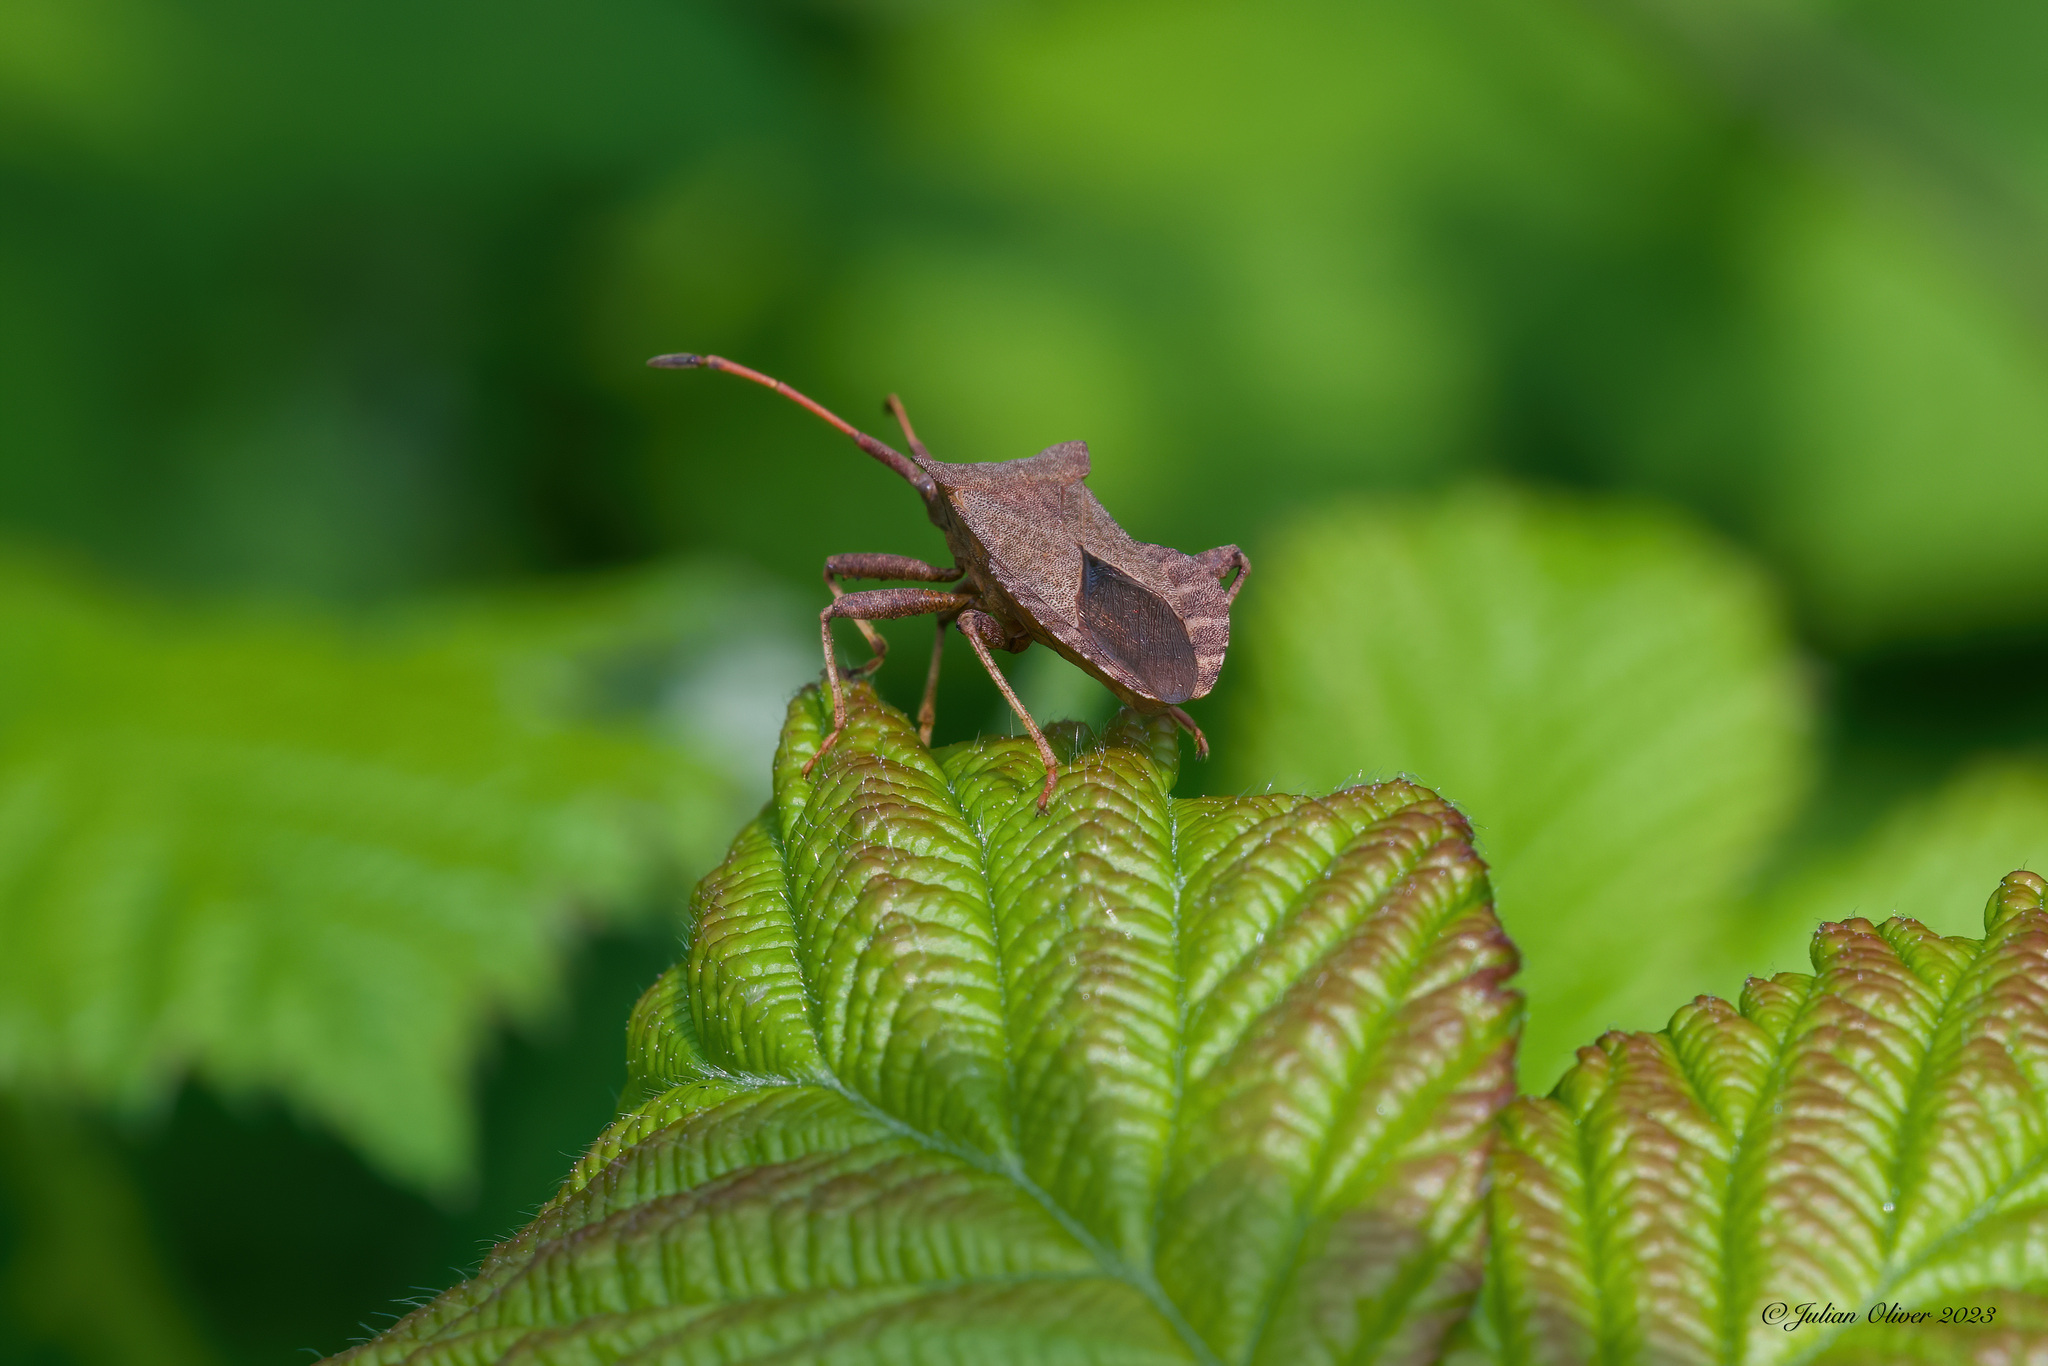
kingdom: Animalia
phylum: Arthropoda
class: Insecta
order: Hemiptera
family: Coreidae
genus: Coreus
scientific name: Coreus marginatus
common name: Dock bug
